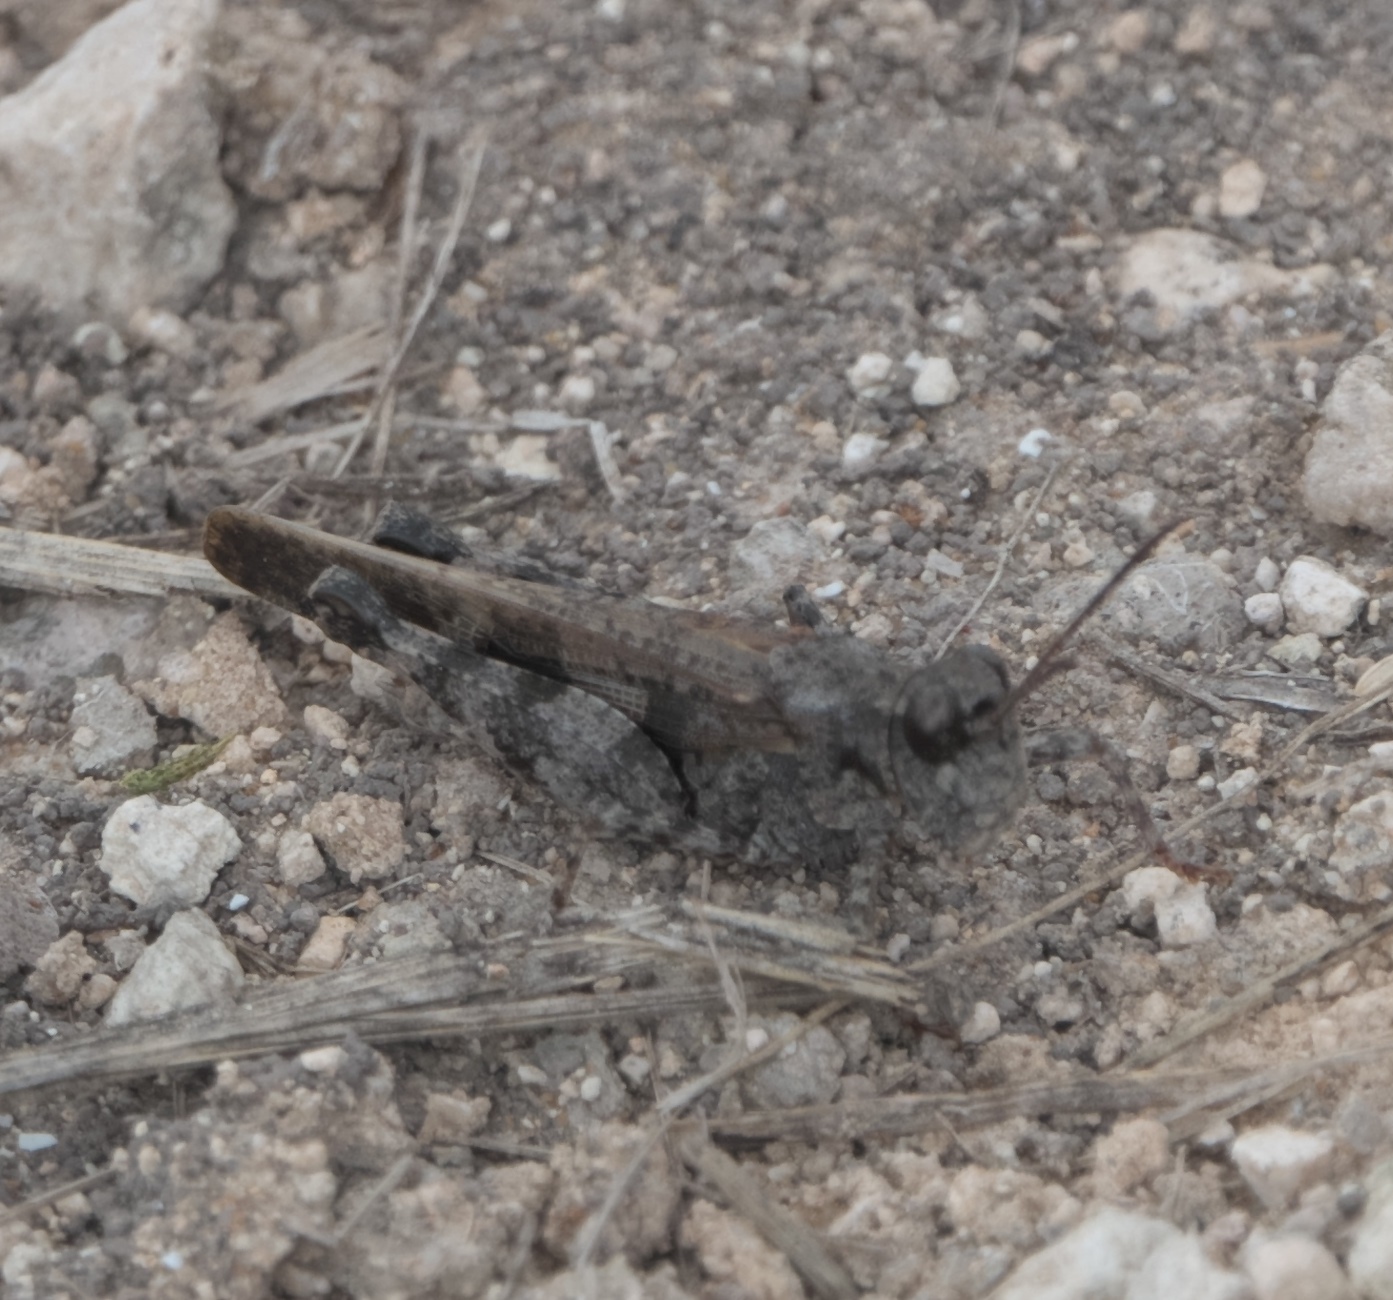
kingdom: Animalia
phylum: Arthropoda
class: Insecta
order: Orthoptera
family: Acrididae
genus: Nebulatettix
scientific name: Nebulatettix subgracilis
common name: Southwestern dusky grasshopper
